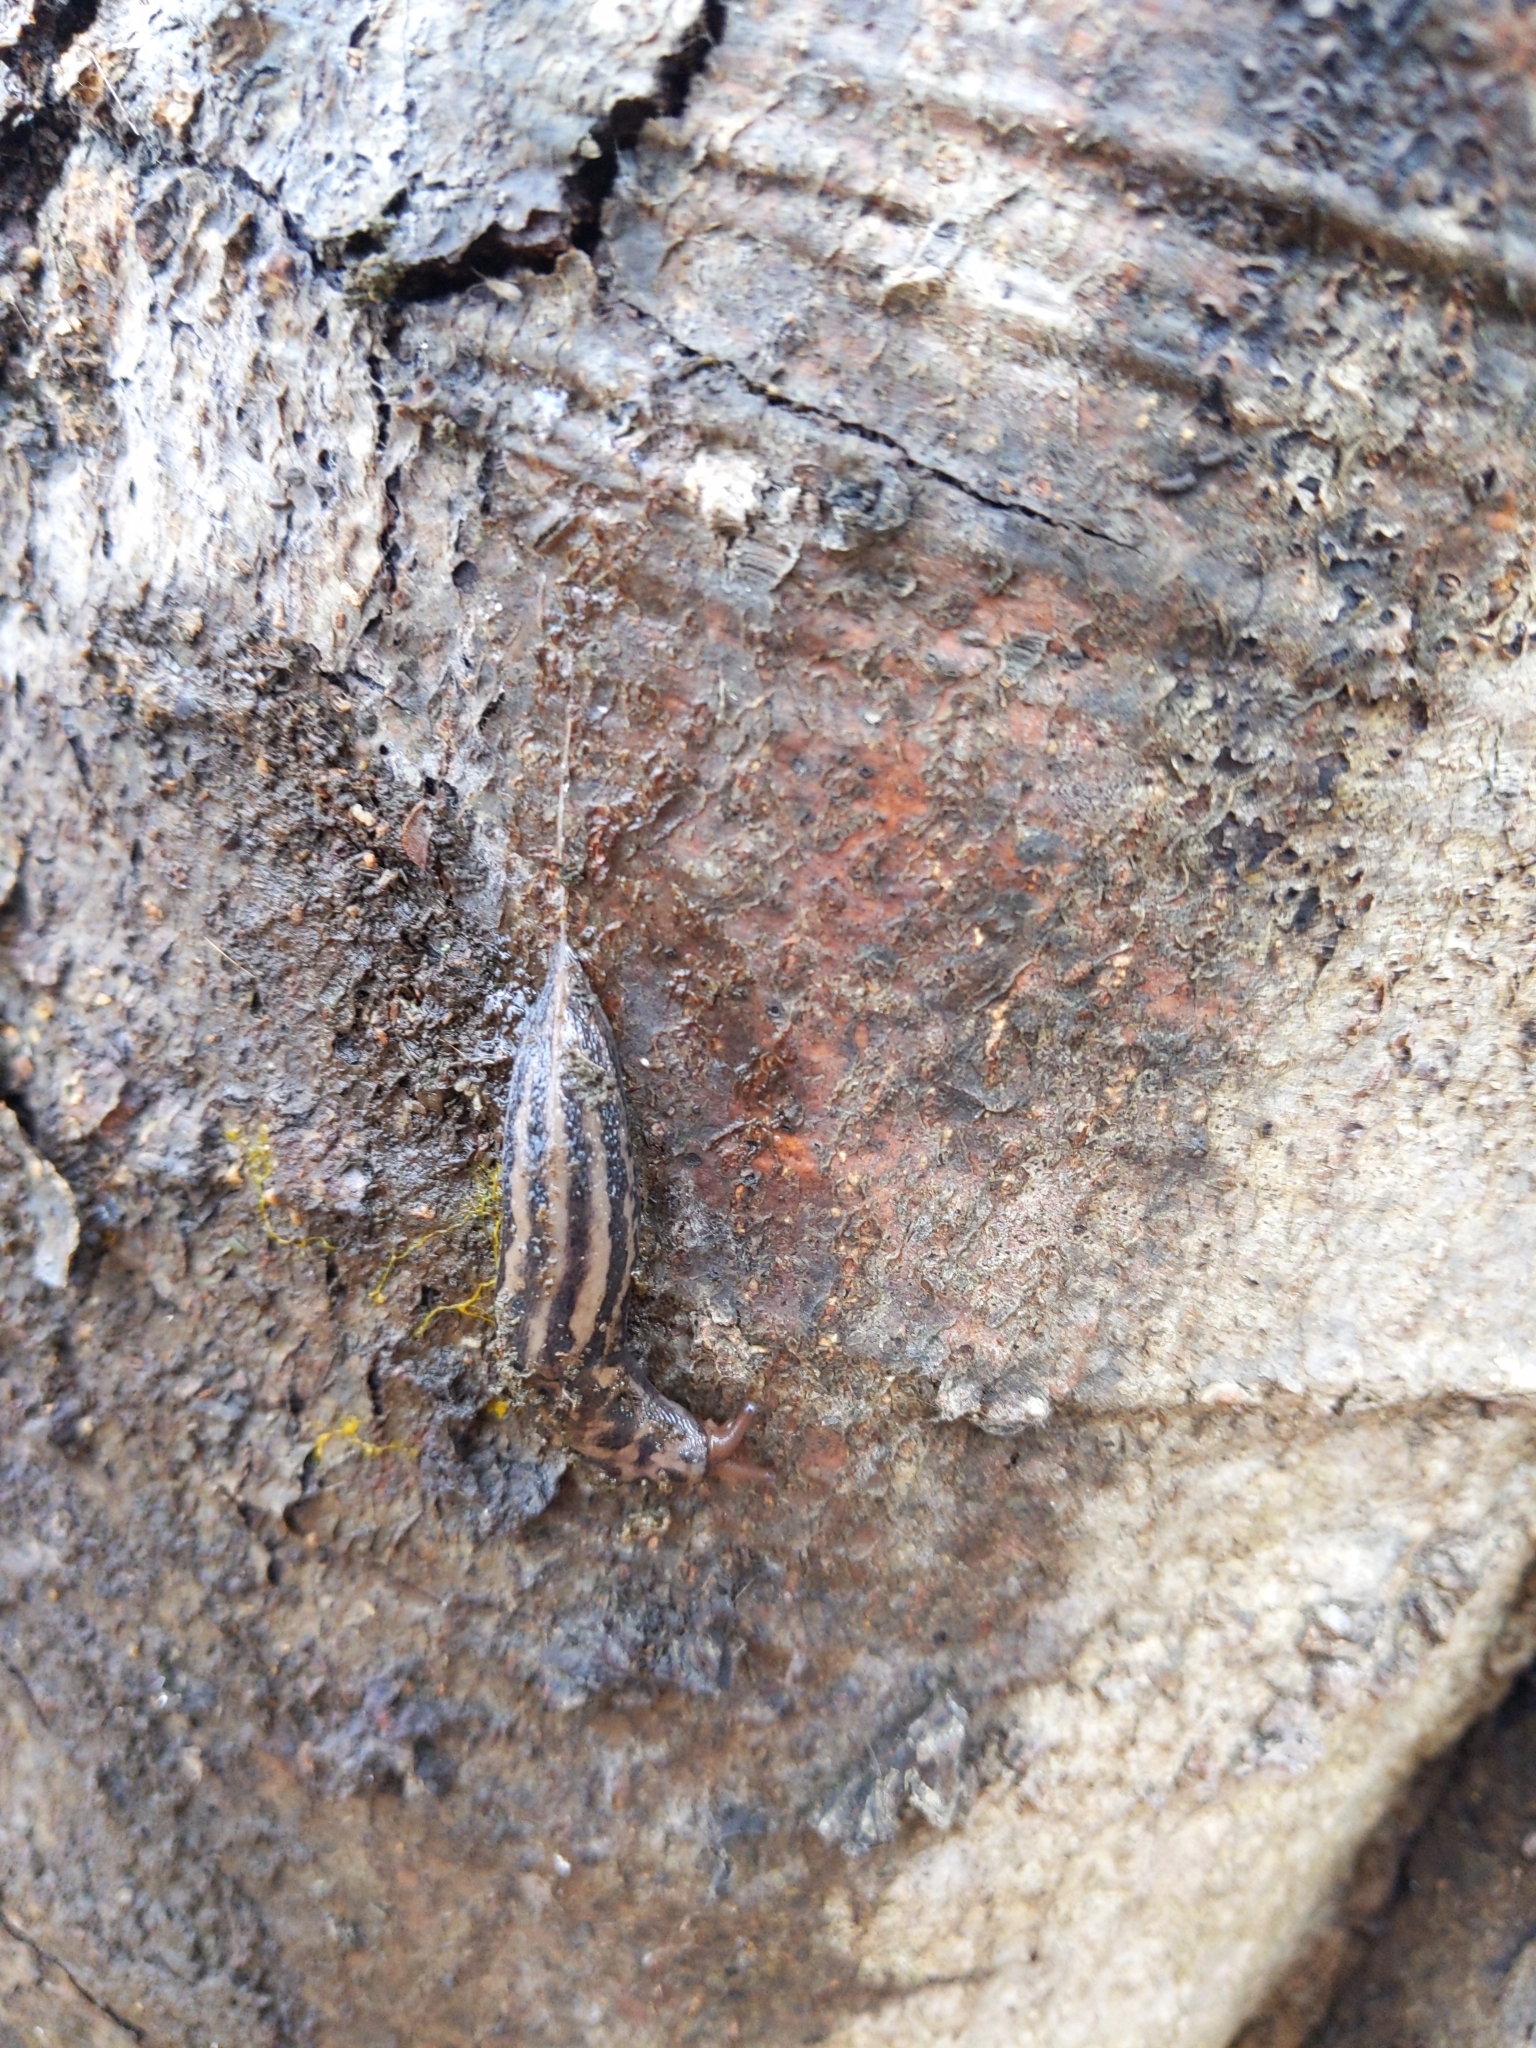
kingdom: Animalia
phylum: Mollusca
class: Gastropoda
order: Stylommatophora
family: Limacidae
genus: Limax
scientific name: Limax maximus
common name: Great grey slug
